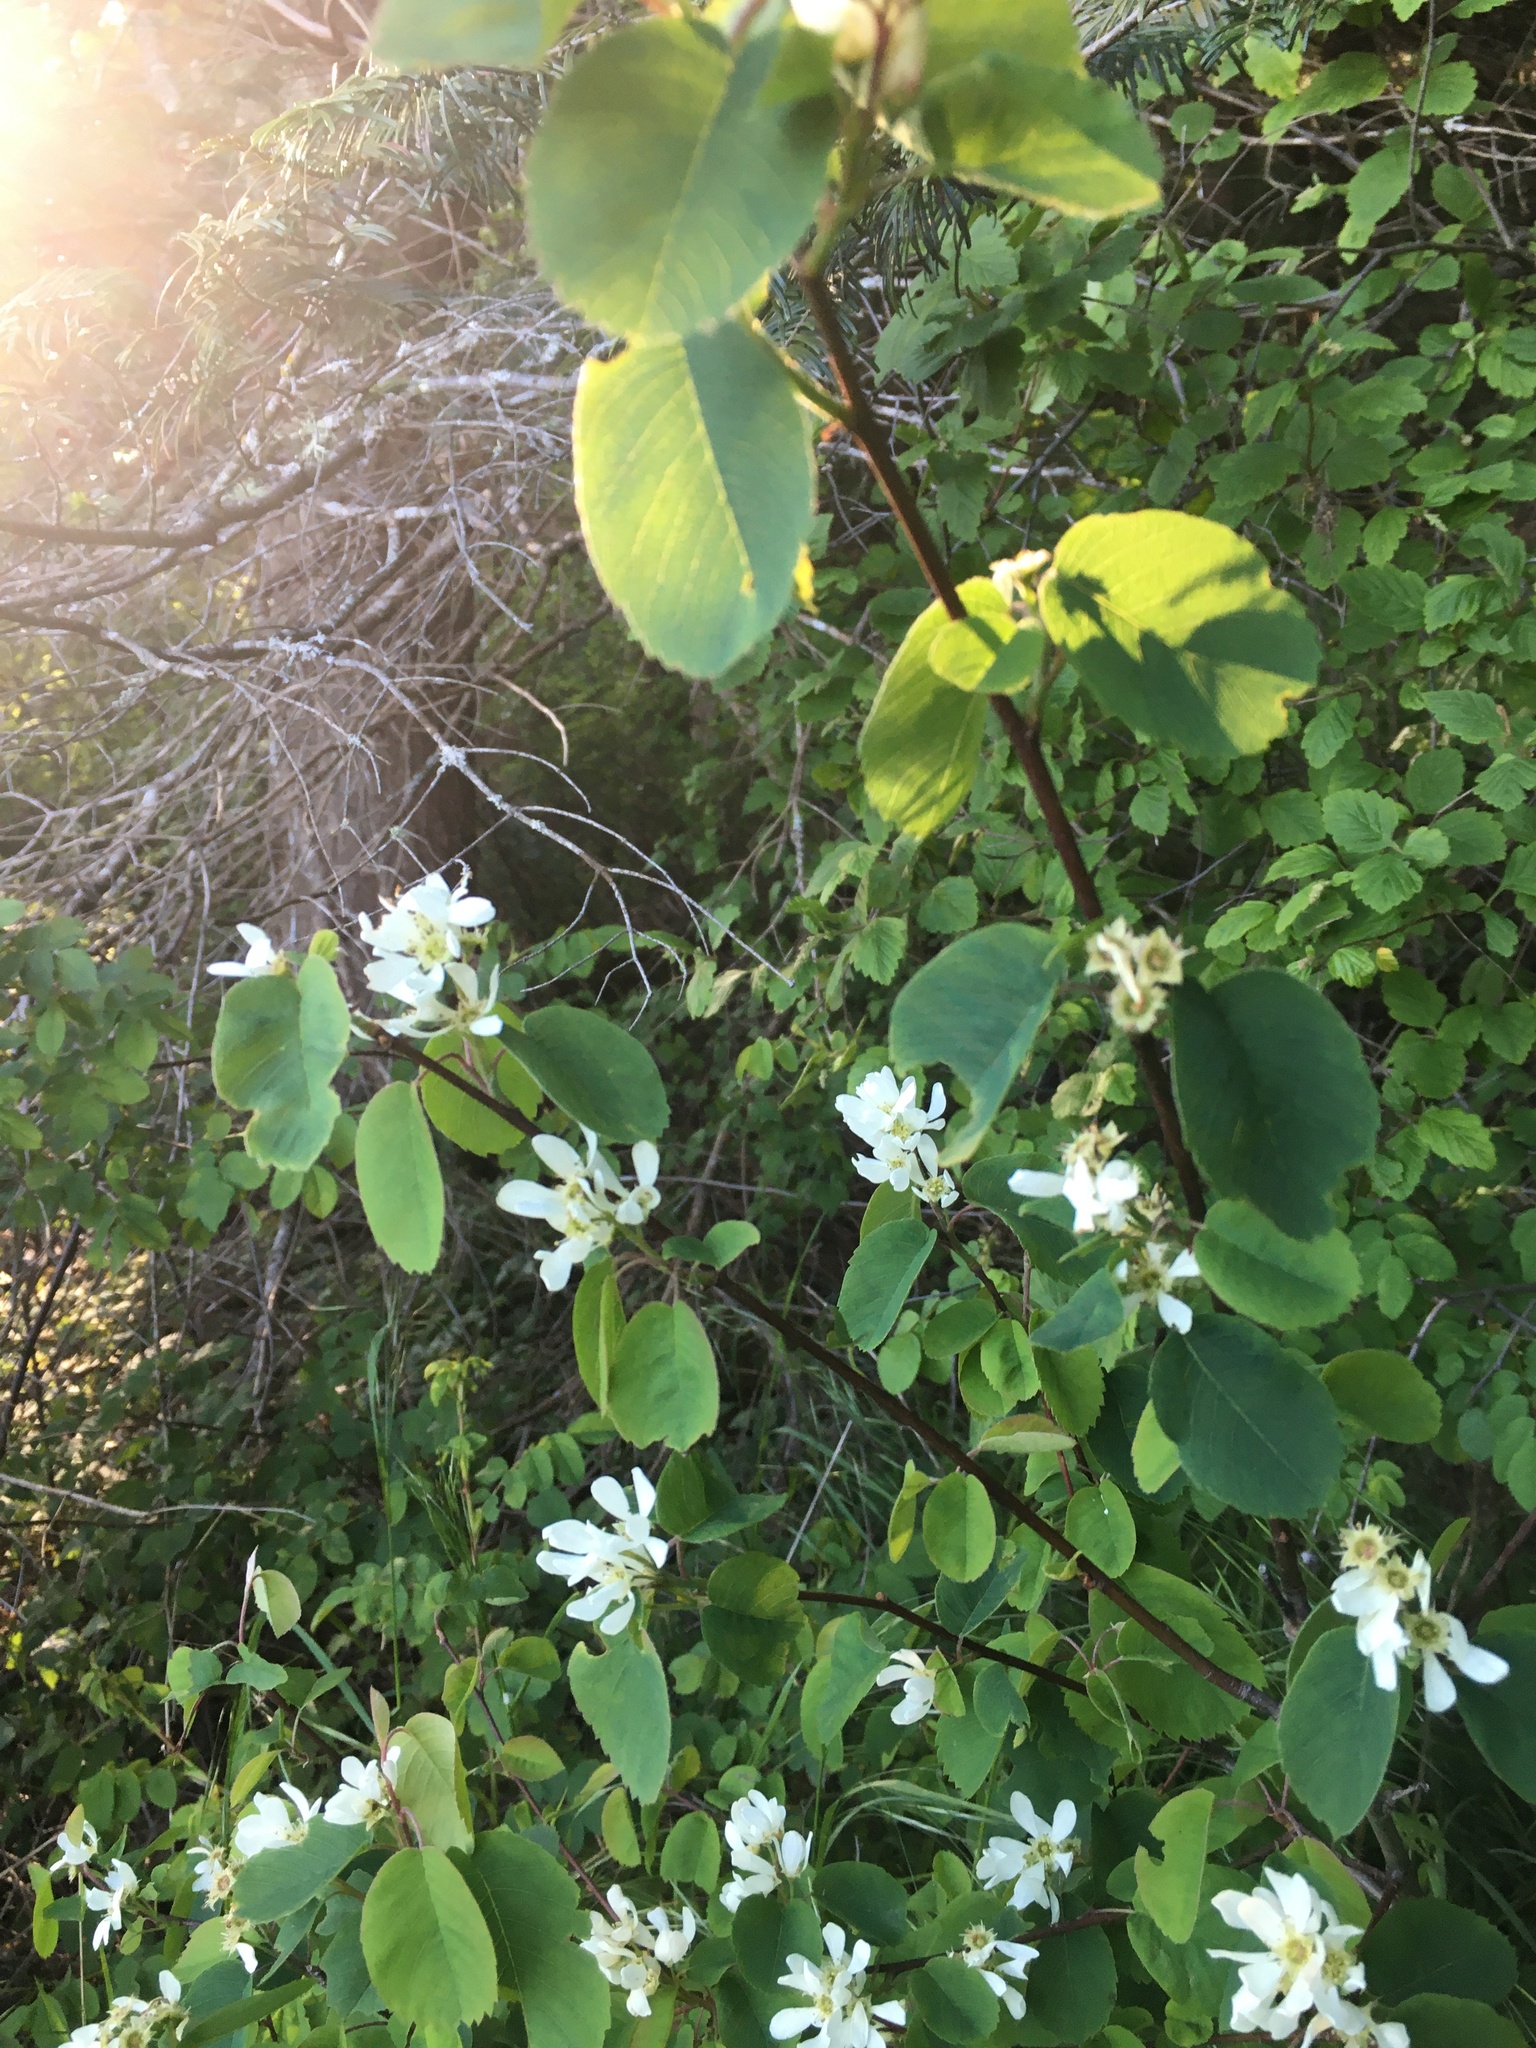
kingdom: Plantae
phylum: Tracheophyta
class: Magnoliopsida
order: Rosales
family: Rosaceae
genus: Amelanchier
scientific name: Amelanchier alnifolia
